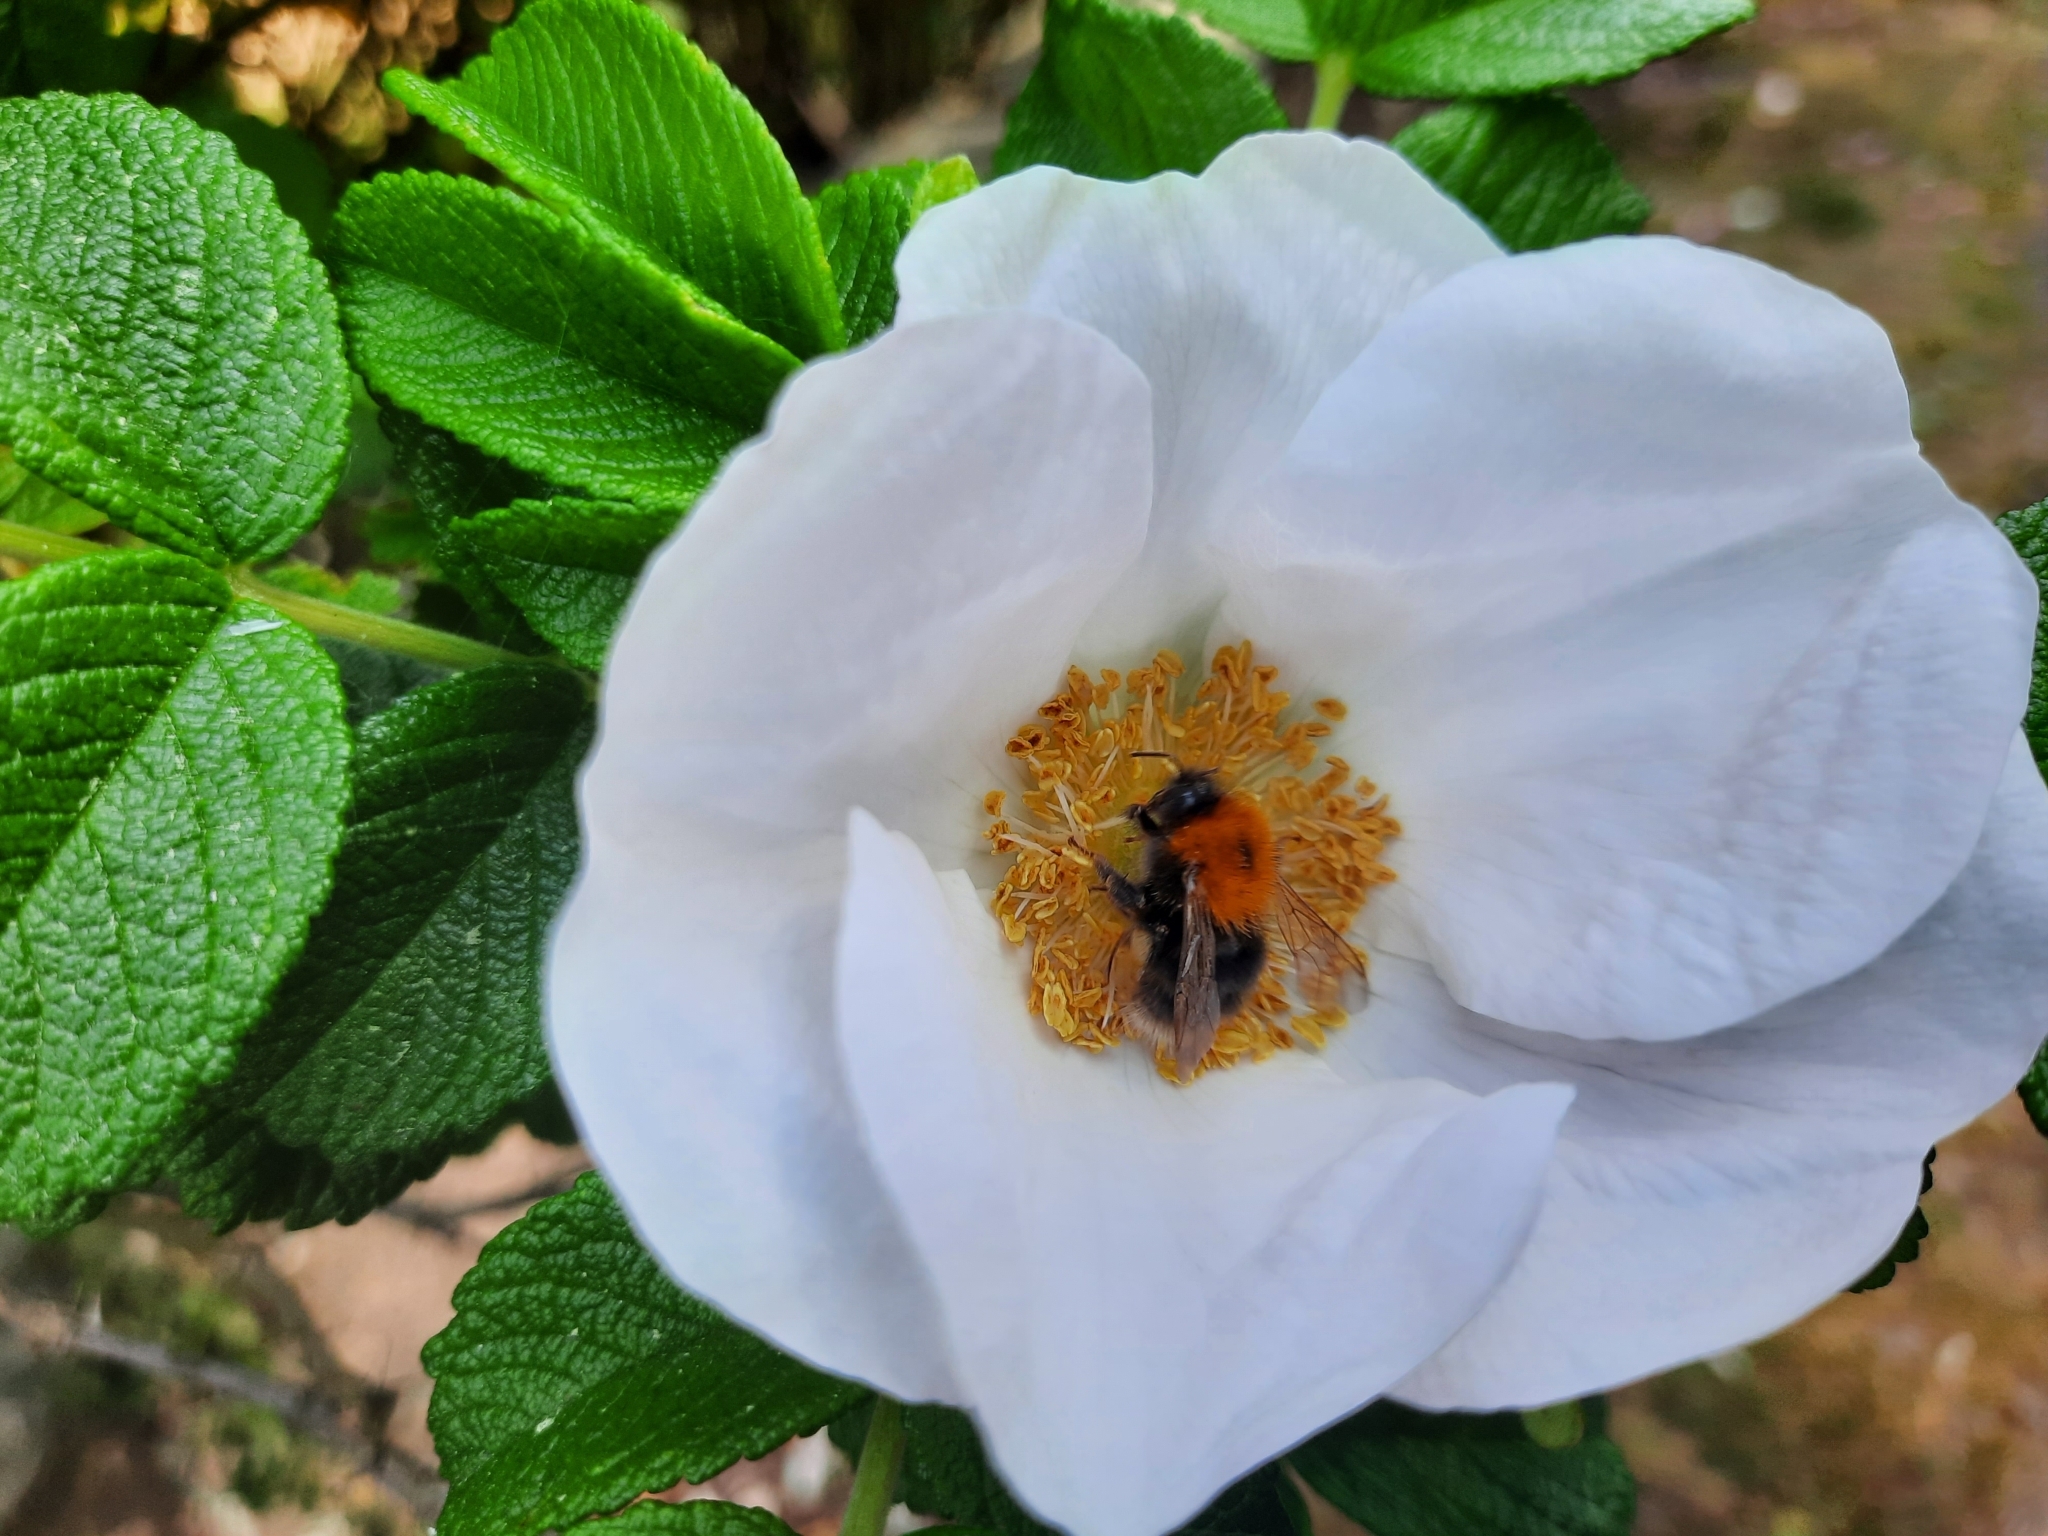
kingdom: Animalia
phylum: Arthropoda
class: Insecta
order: Hymenoptera
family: Apidae
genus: Bombus
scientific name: Bombus hypnorum
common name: New garden bumblebee
